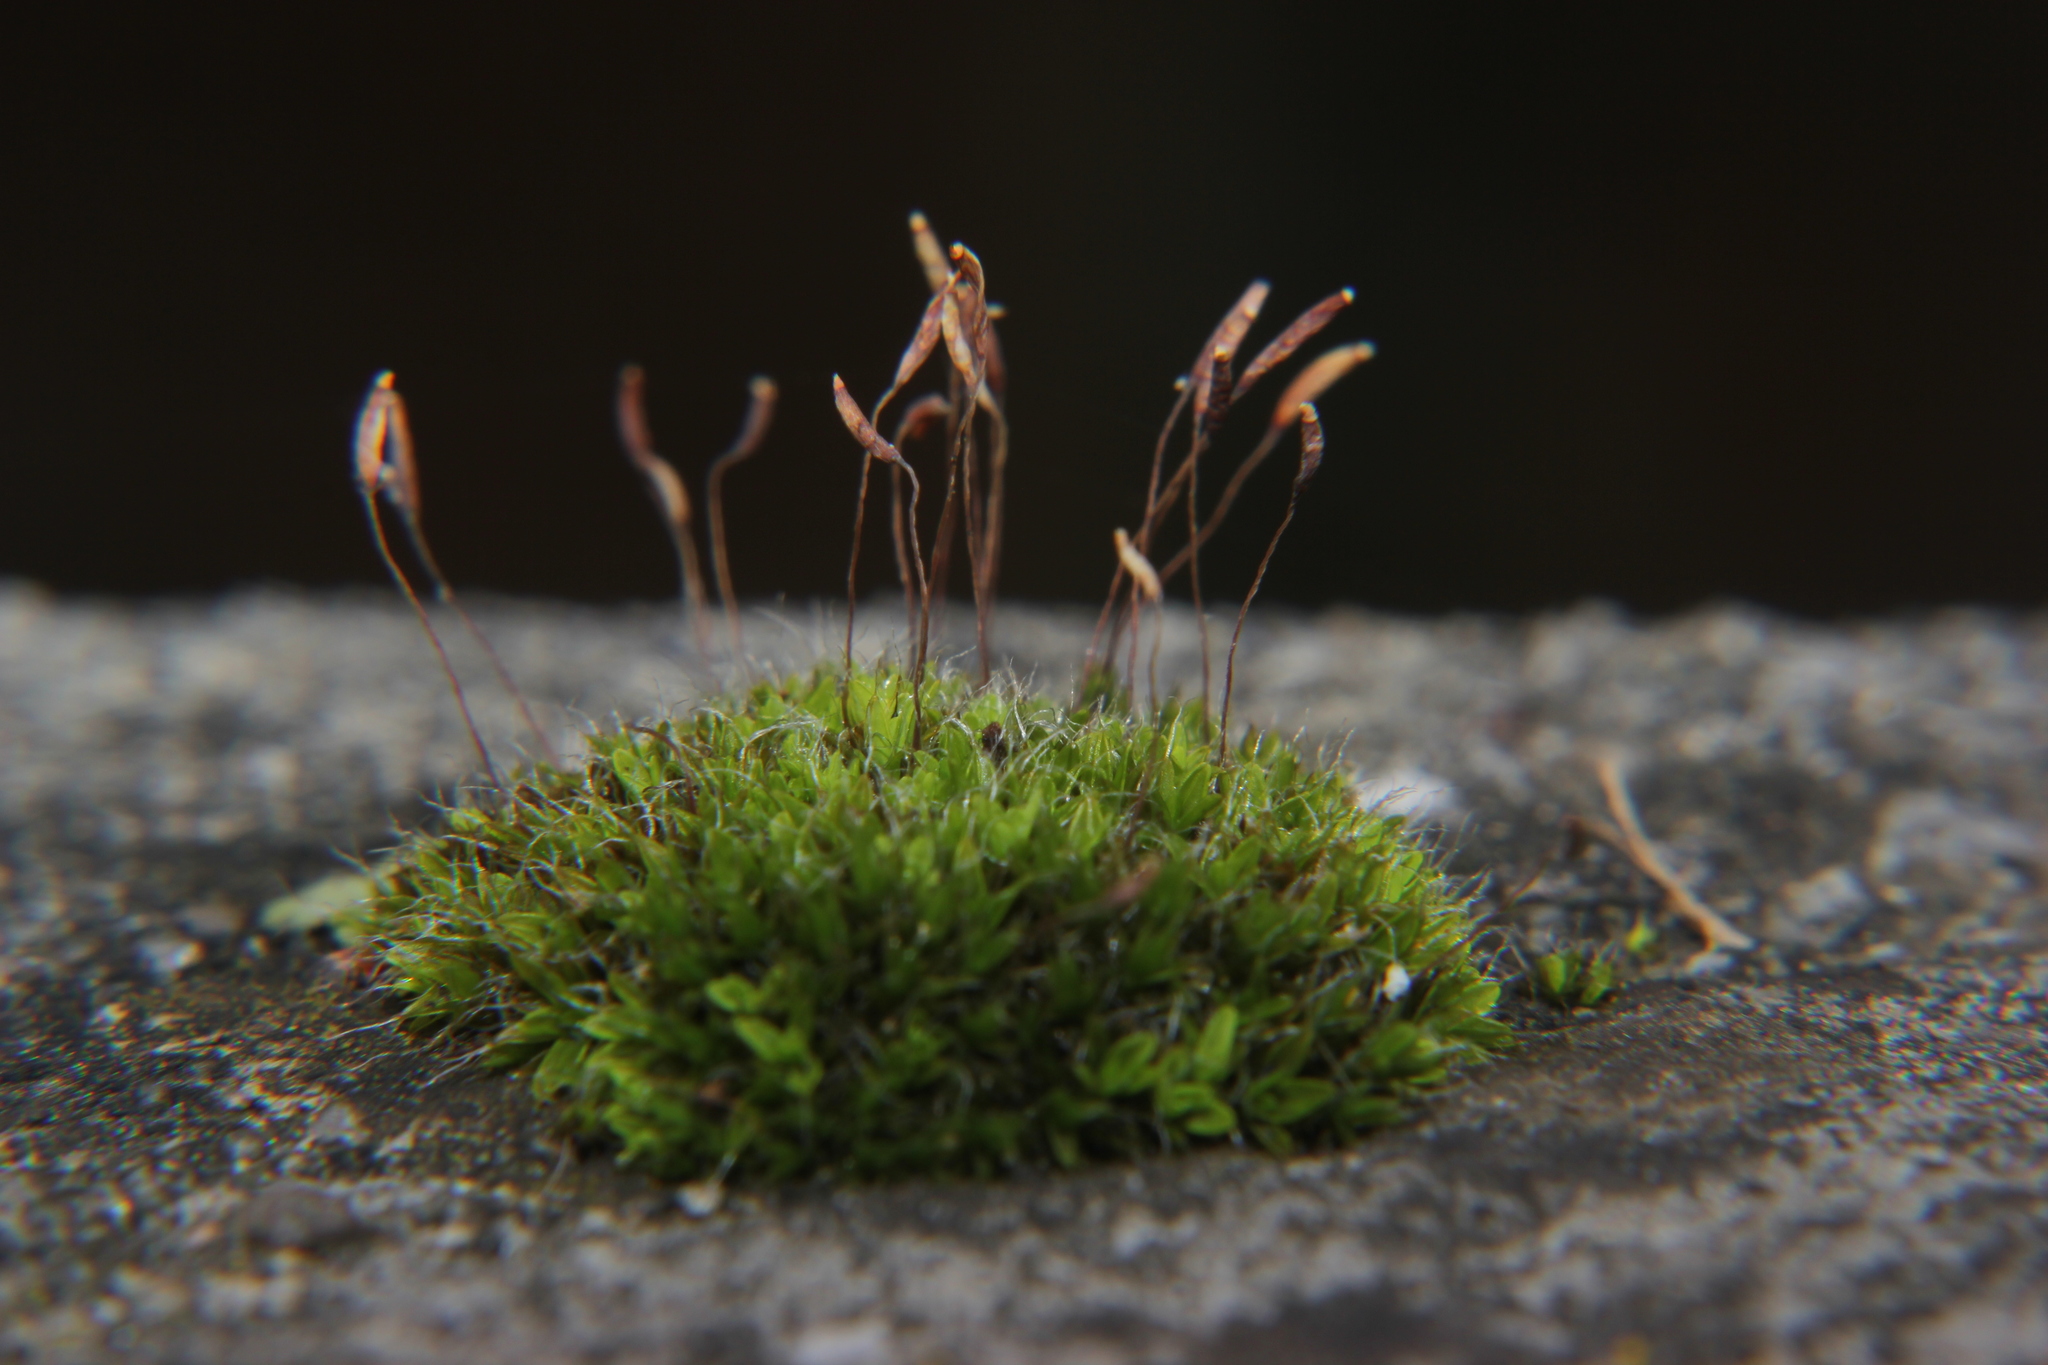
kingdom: Plantae
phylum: Bryophyta
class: Bryopsida
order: Pottiales
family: Pottiaceae
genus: Tortula
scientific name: Tortula muralis
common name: Wall screw-moss
